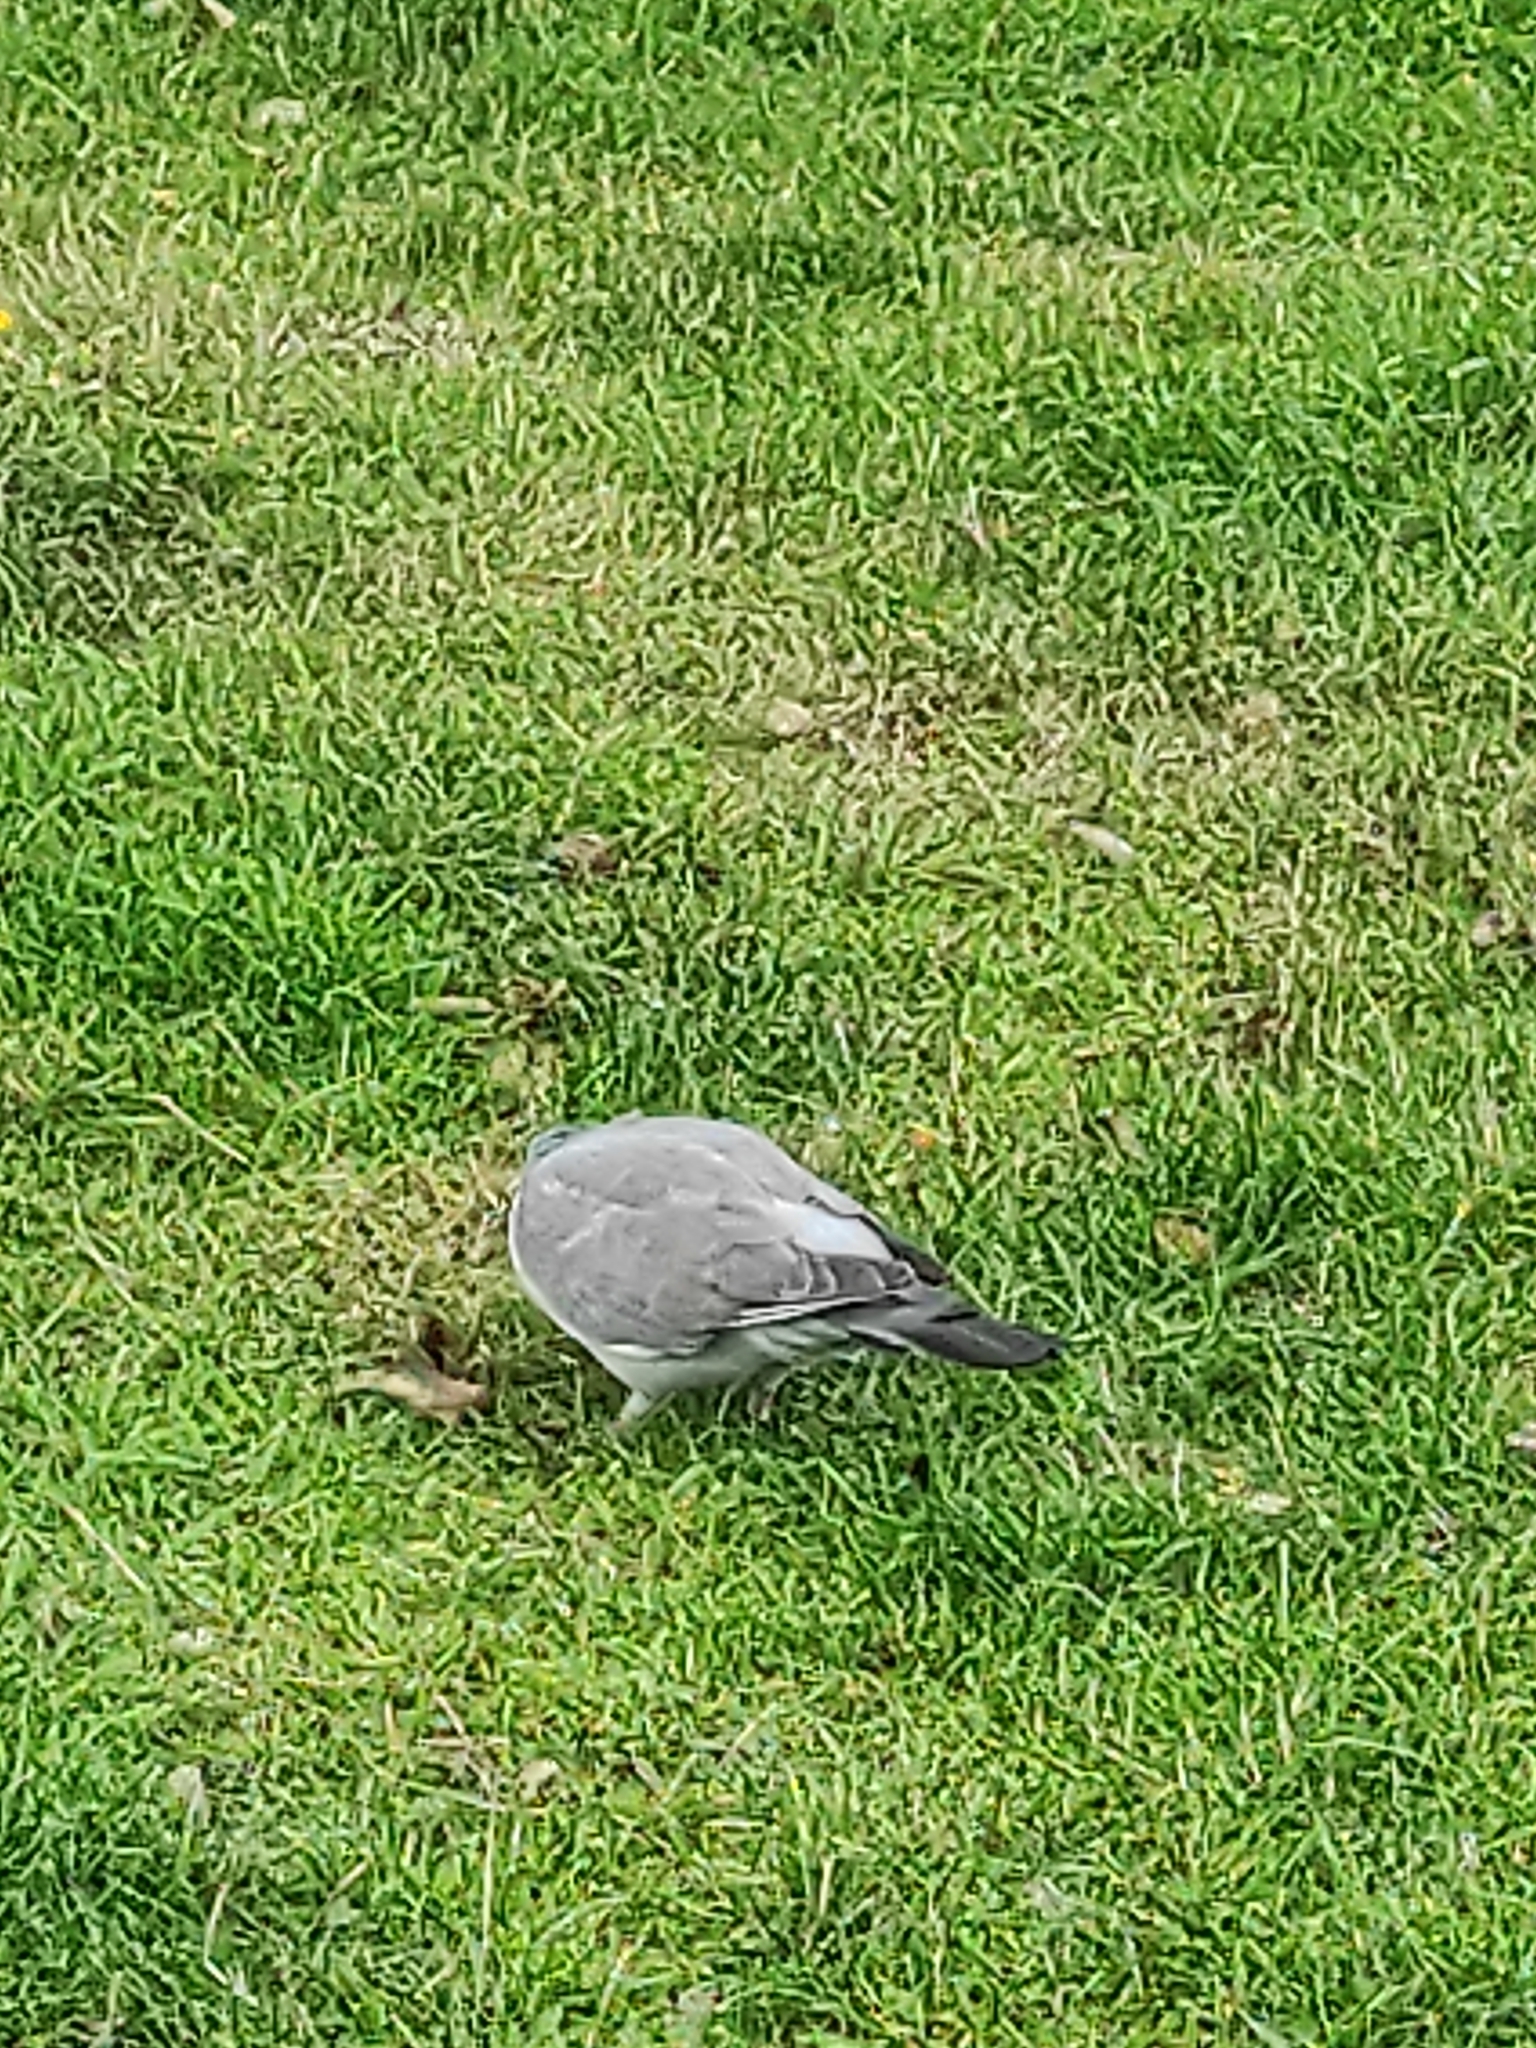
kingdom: Animalia
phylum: Chordata
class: Aves
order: Columbiformes
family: Columbidae
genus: Columba
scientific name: Columba palumbus
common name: Common wood pigeon
